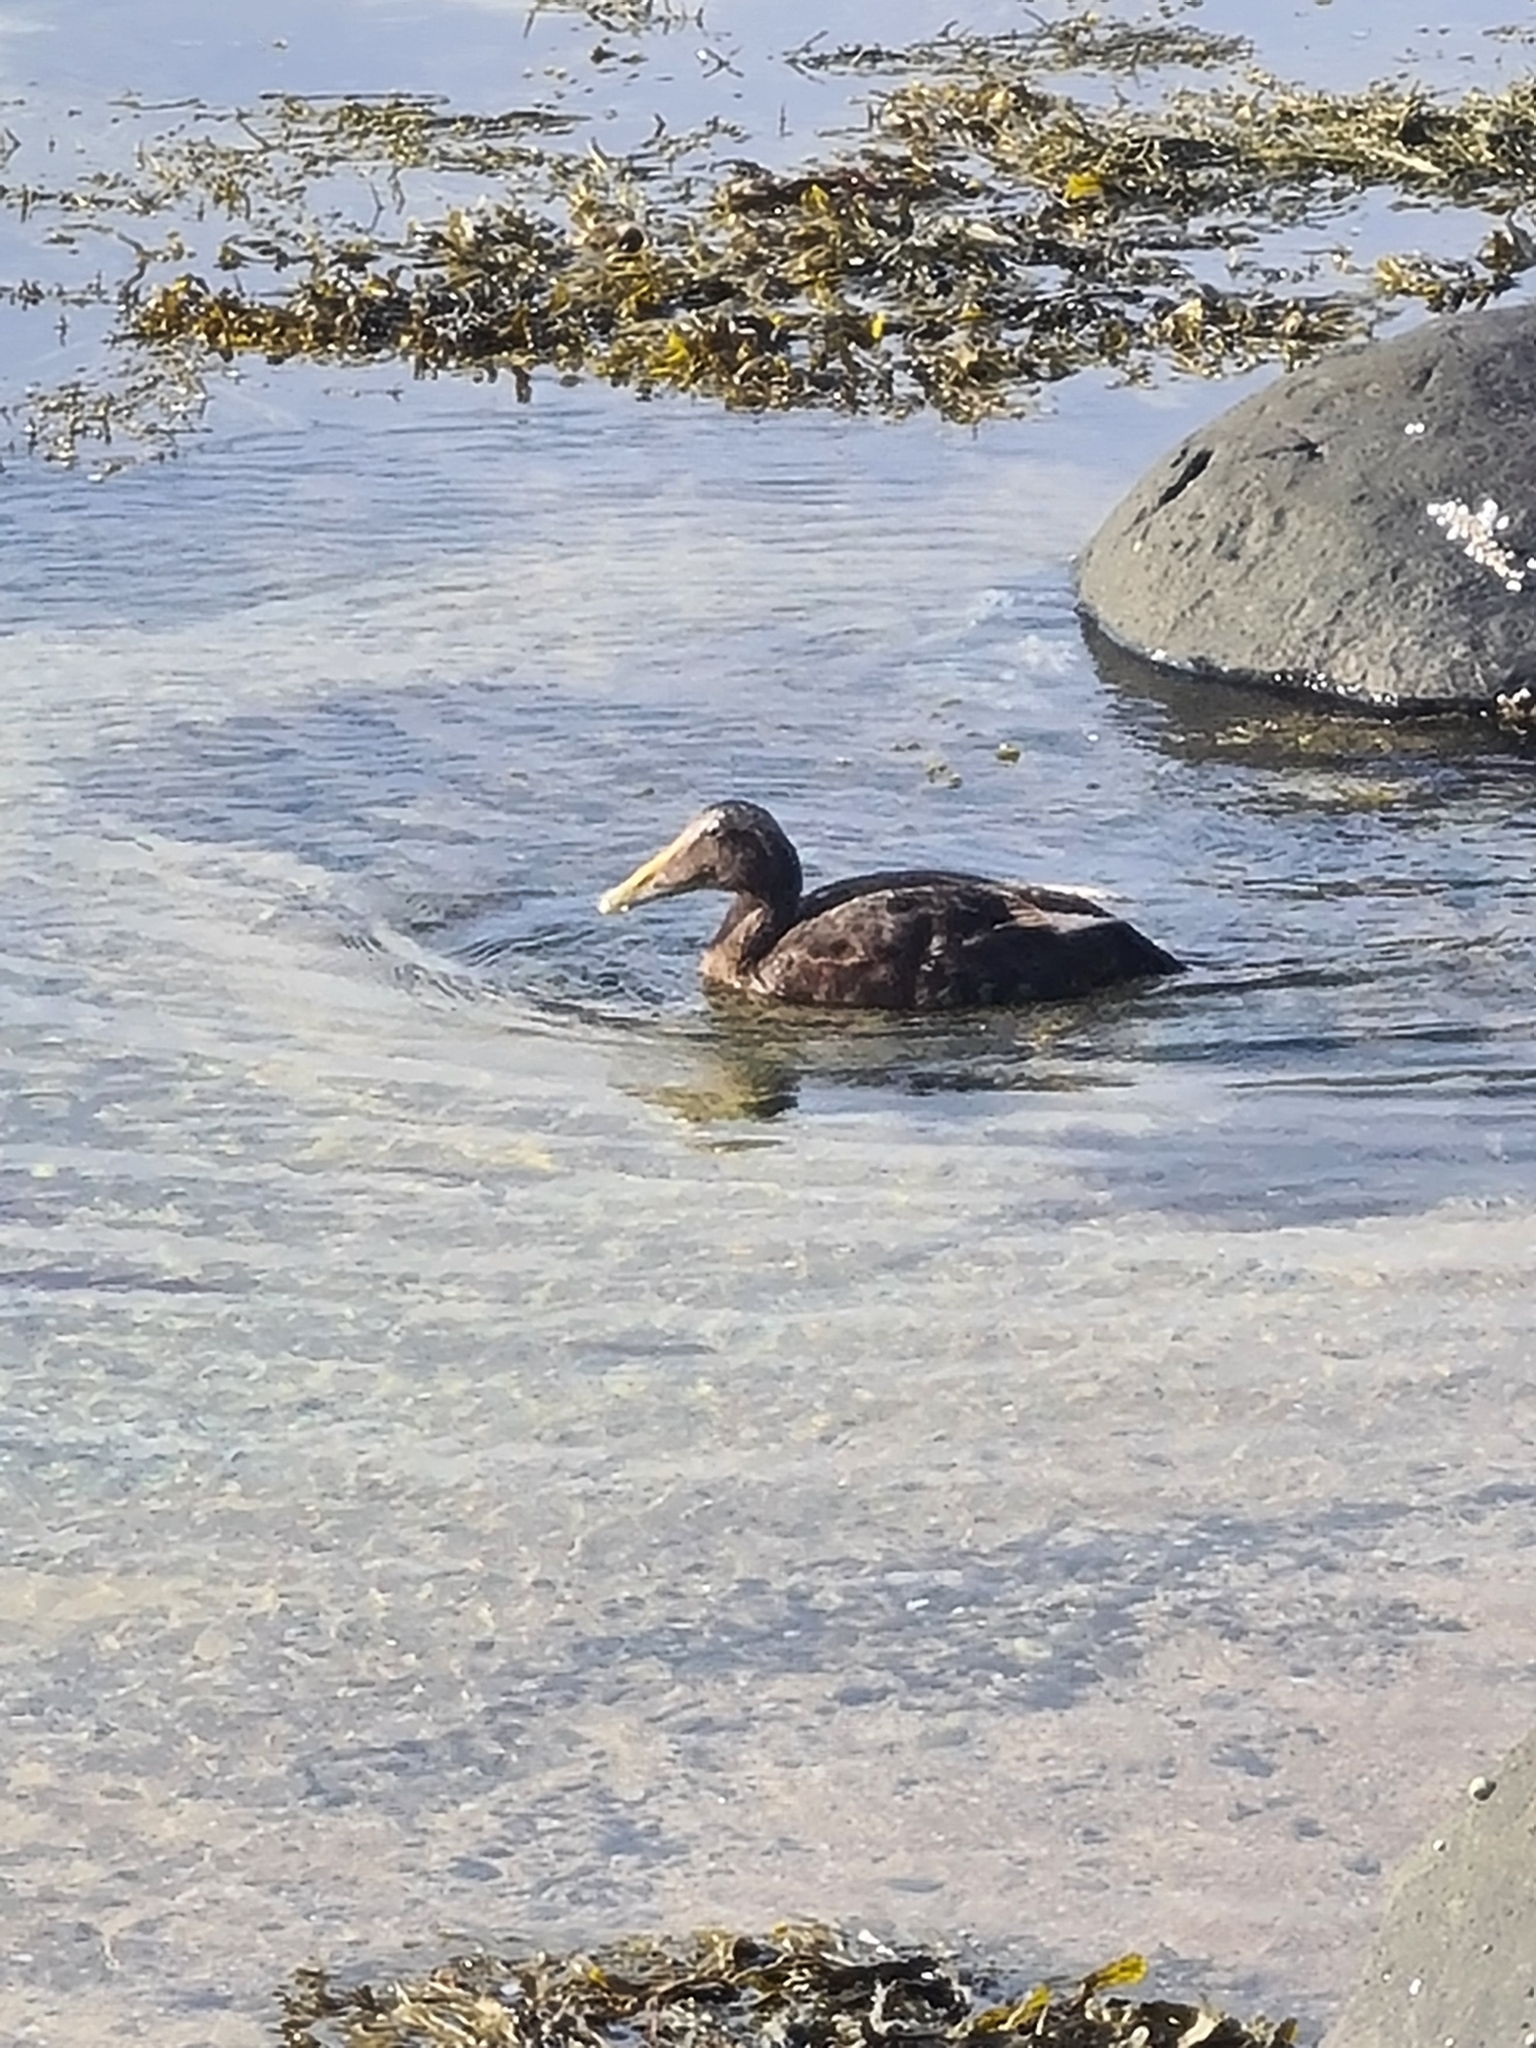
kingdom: Animalia
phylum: Chordata
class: Aves
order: Anseriformes
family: Anatidae
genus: Somateria
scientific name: Somateria mollissima
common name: Common eider
